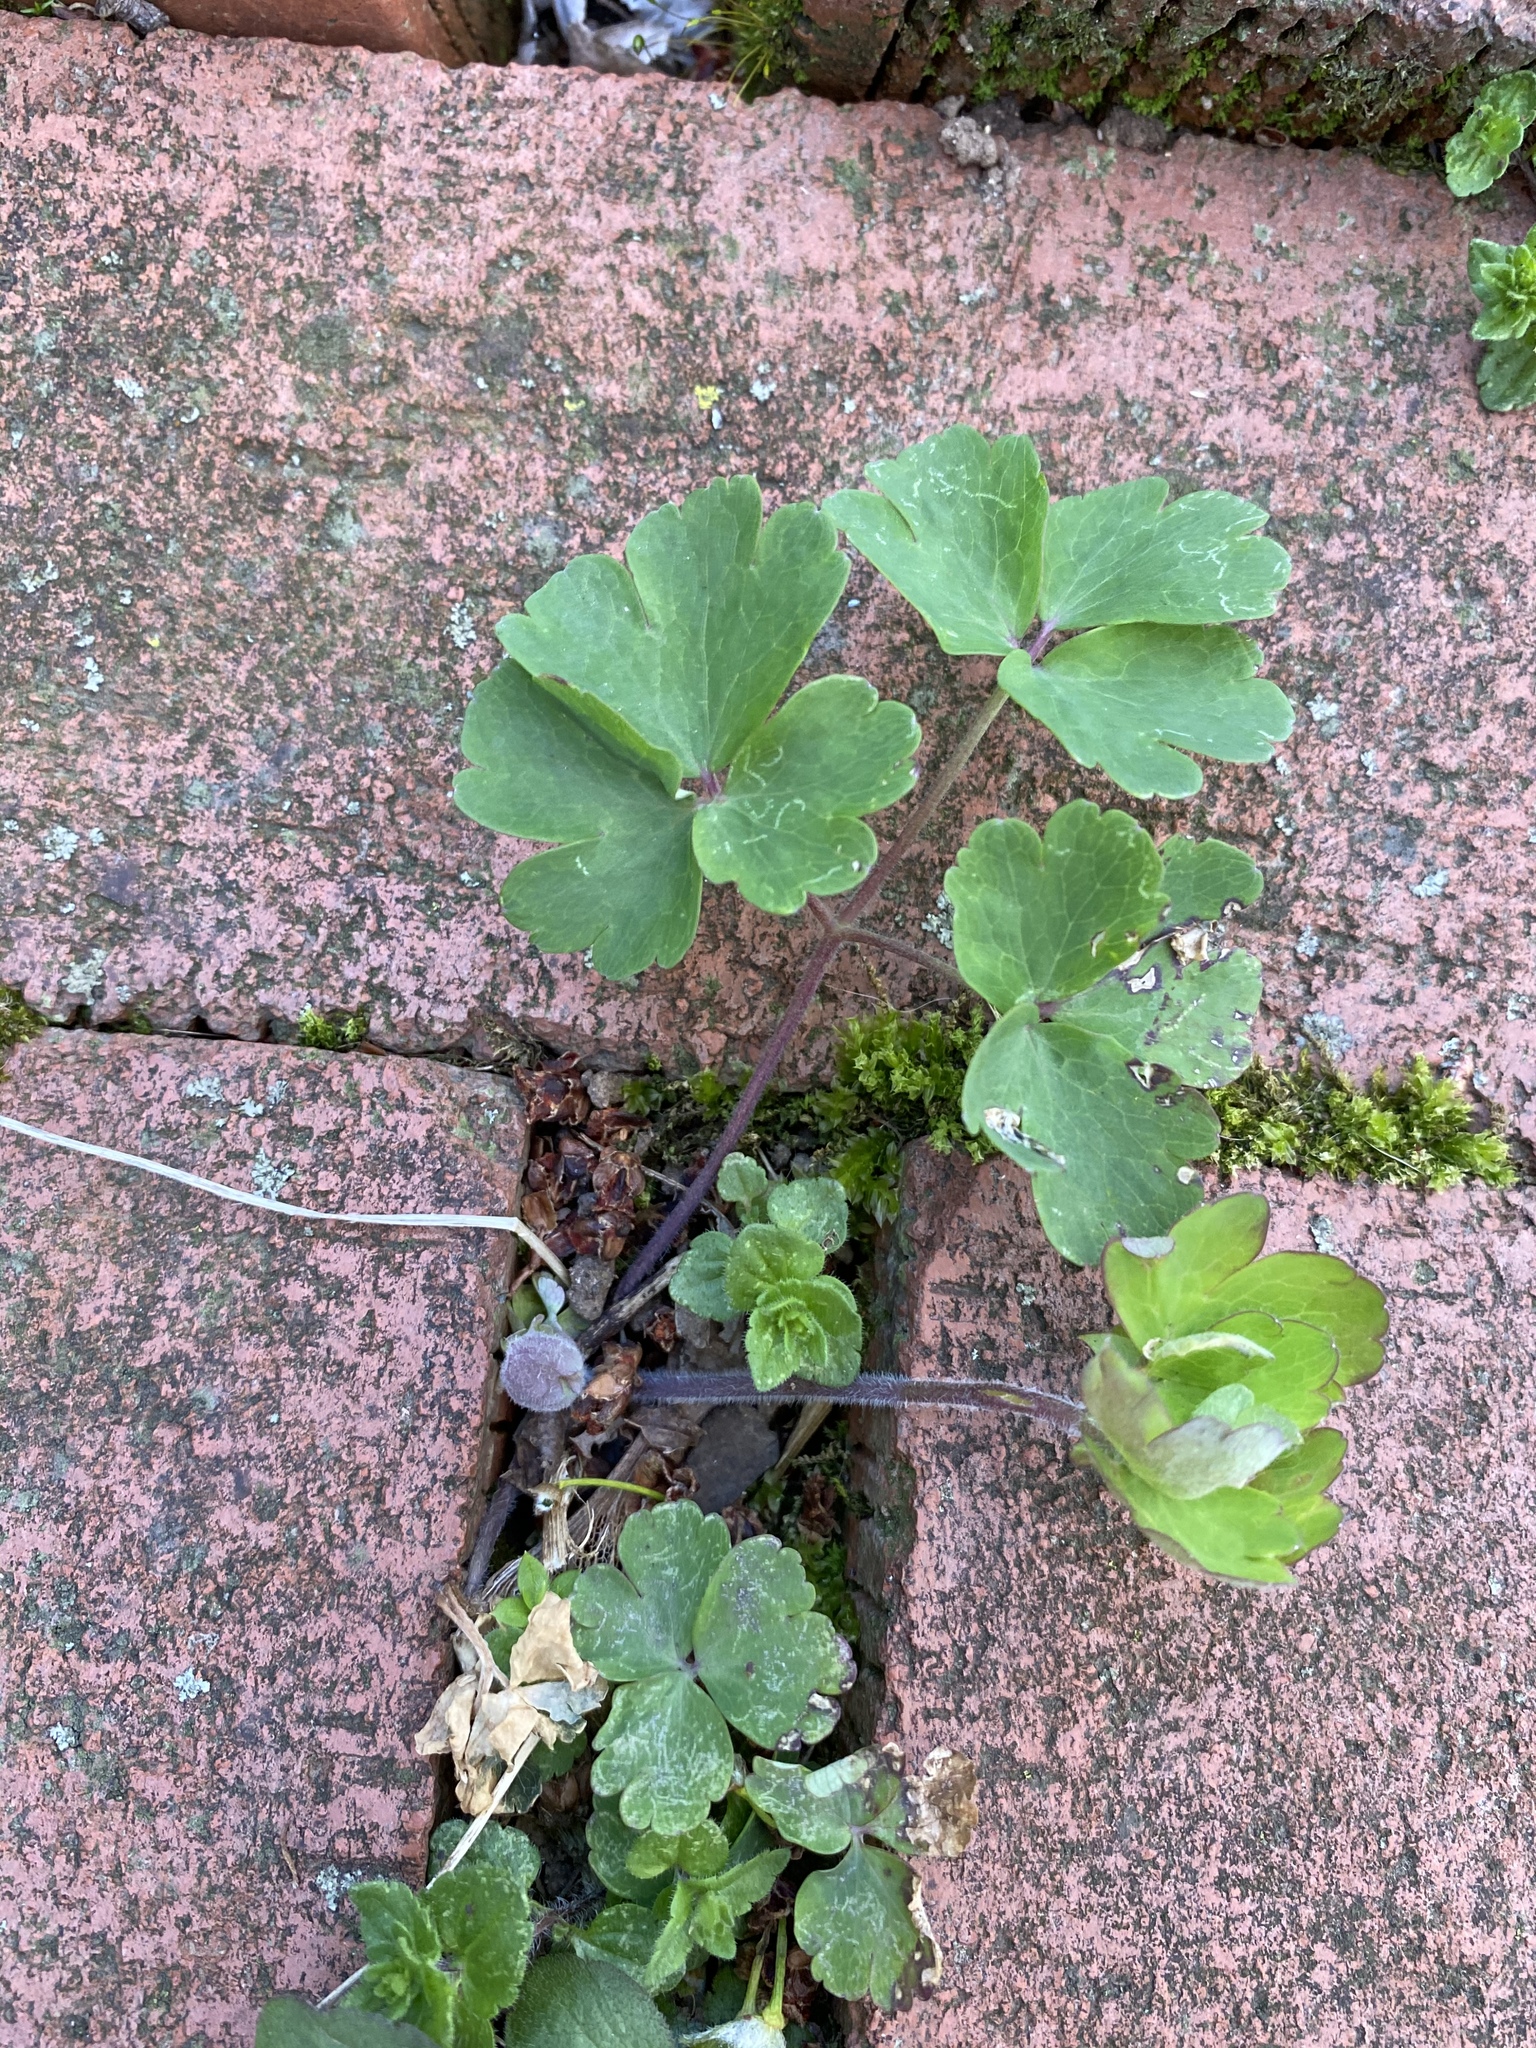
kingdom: Plantae
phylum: Tracheophyta
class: Magnoliopsida
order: Ranunculales
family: Ranunculaceae
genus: Aquilegia
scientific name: Aquilegia vulgaris
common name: Columbine
